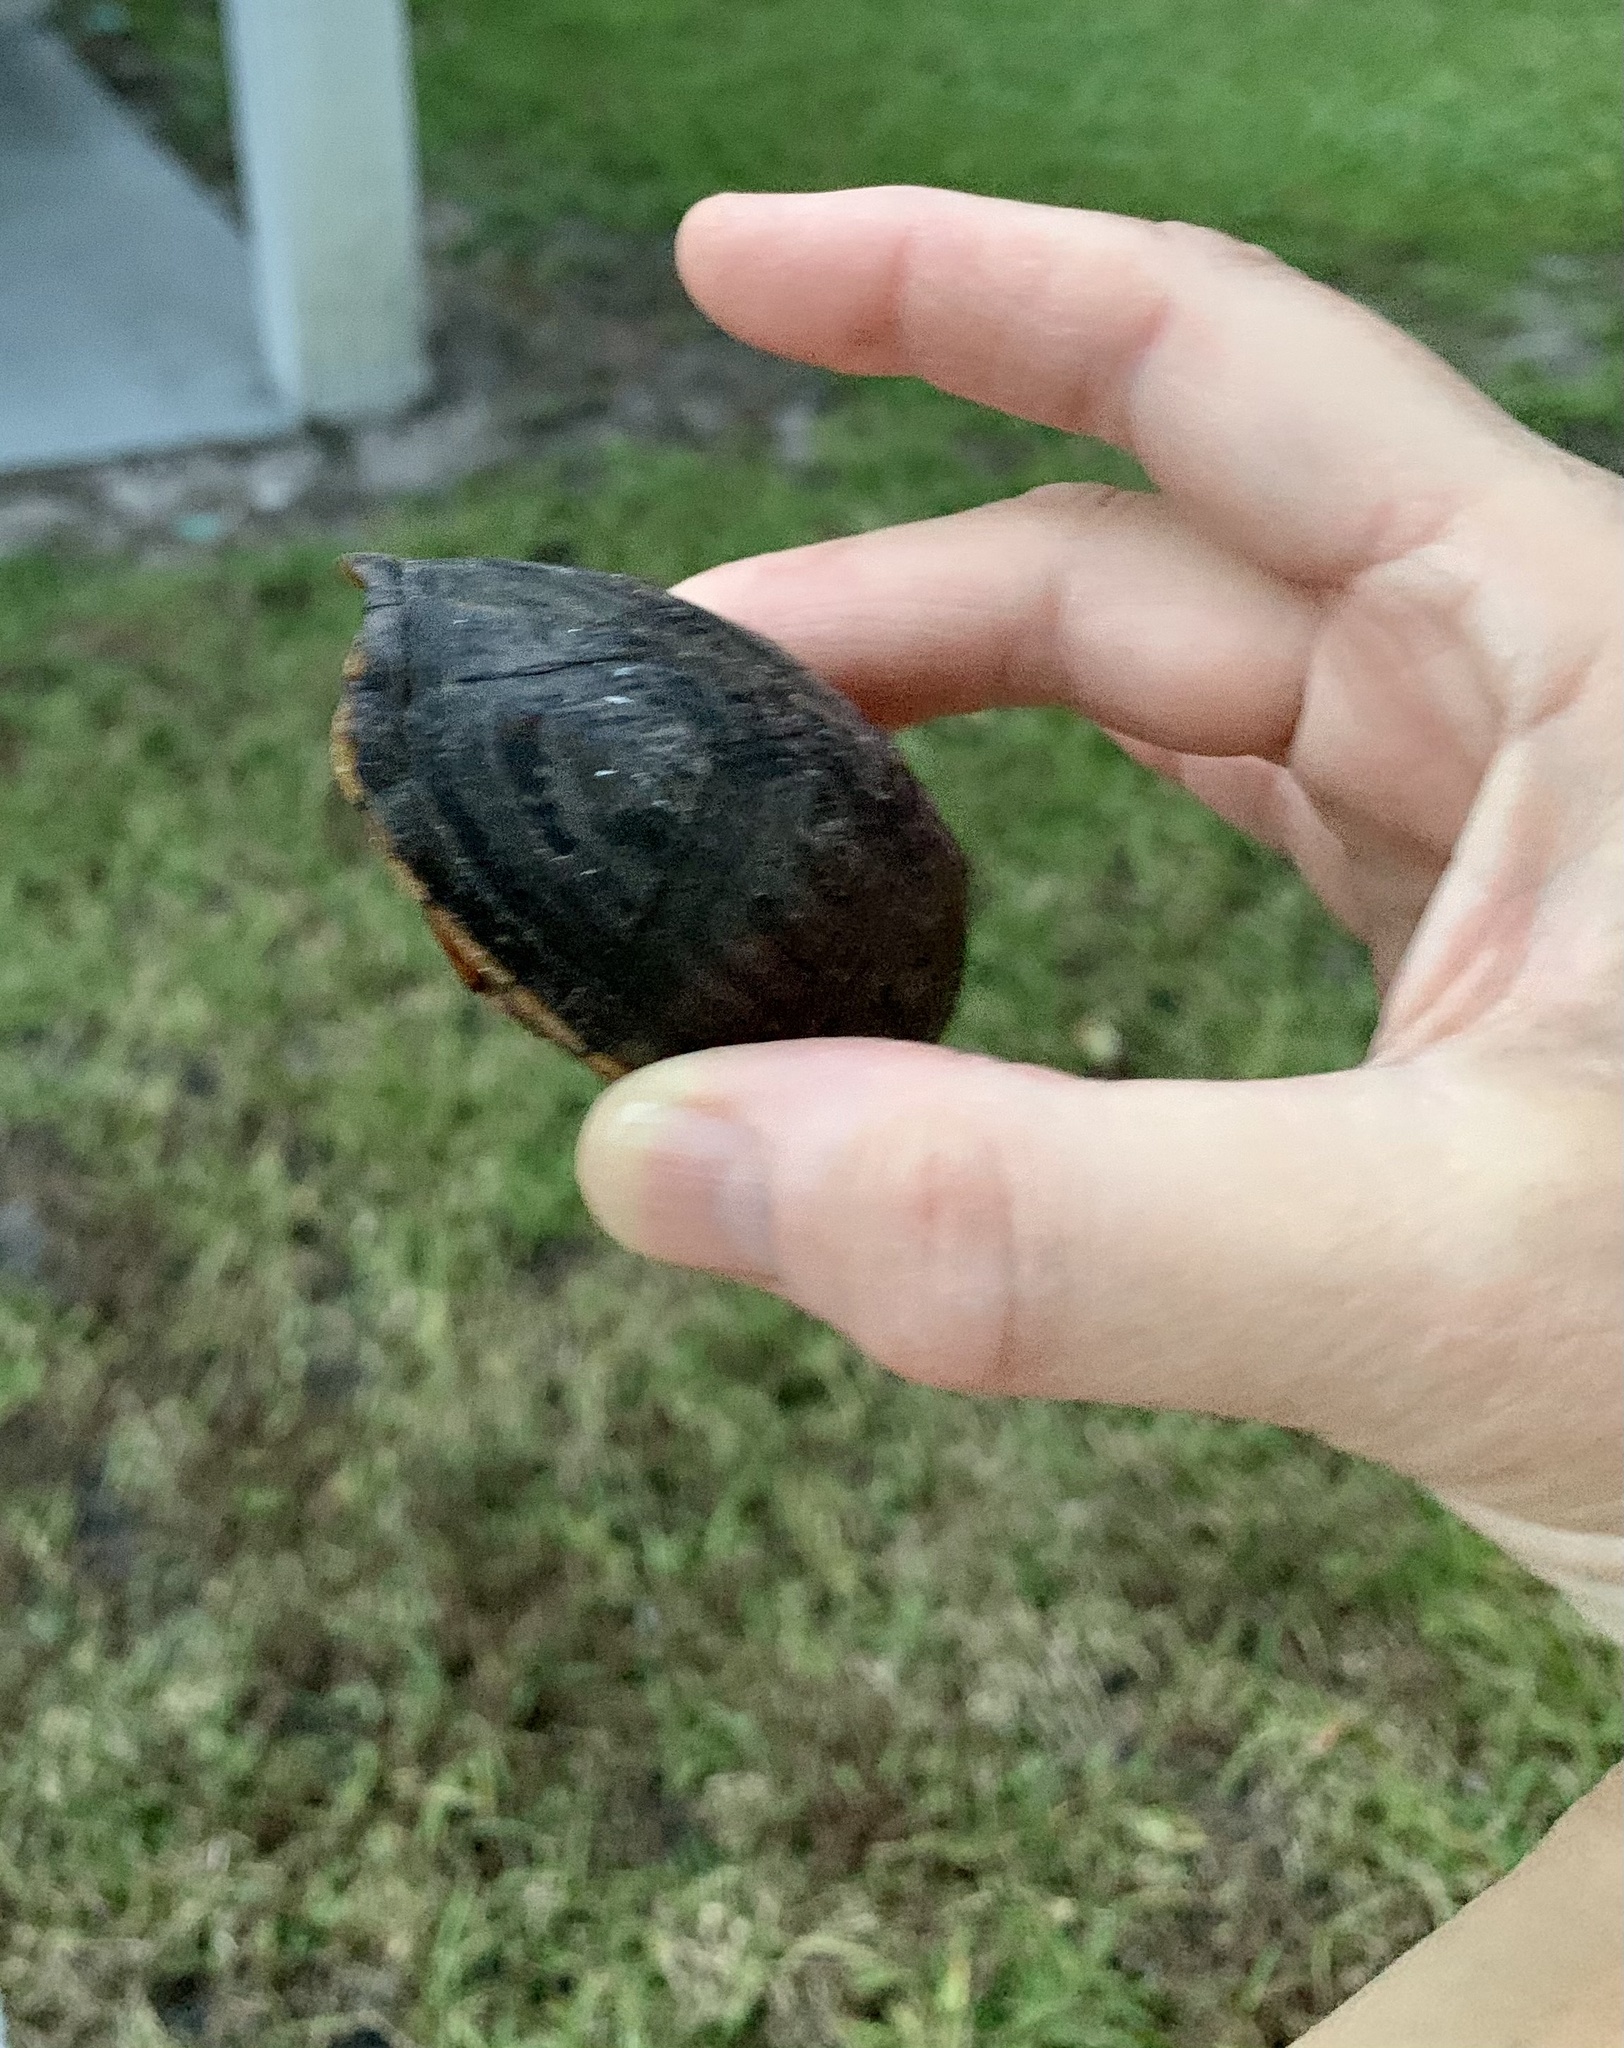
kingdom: Animalia
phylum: Chordata
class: Testudines
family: Kinosternidae
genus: Kinosternon
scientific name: Kinosternon baurii
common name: Striped mud turtle
